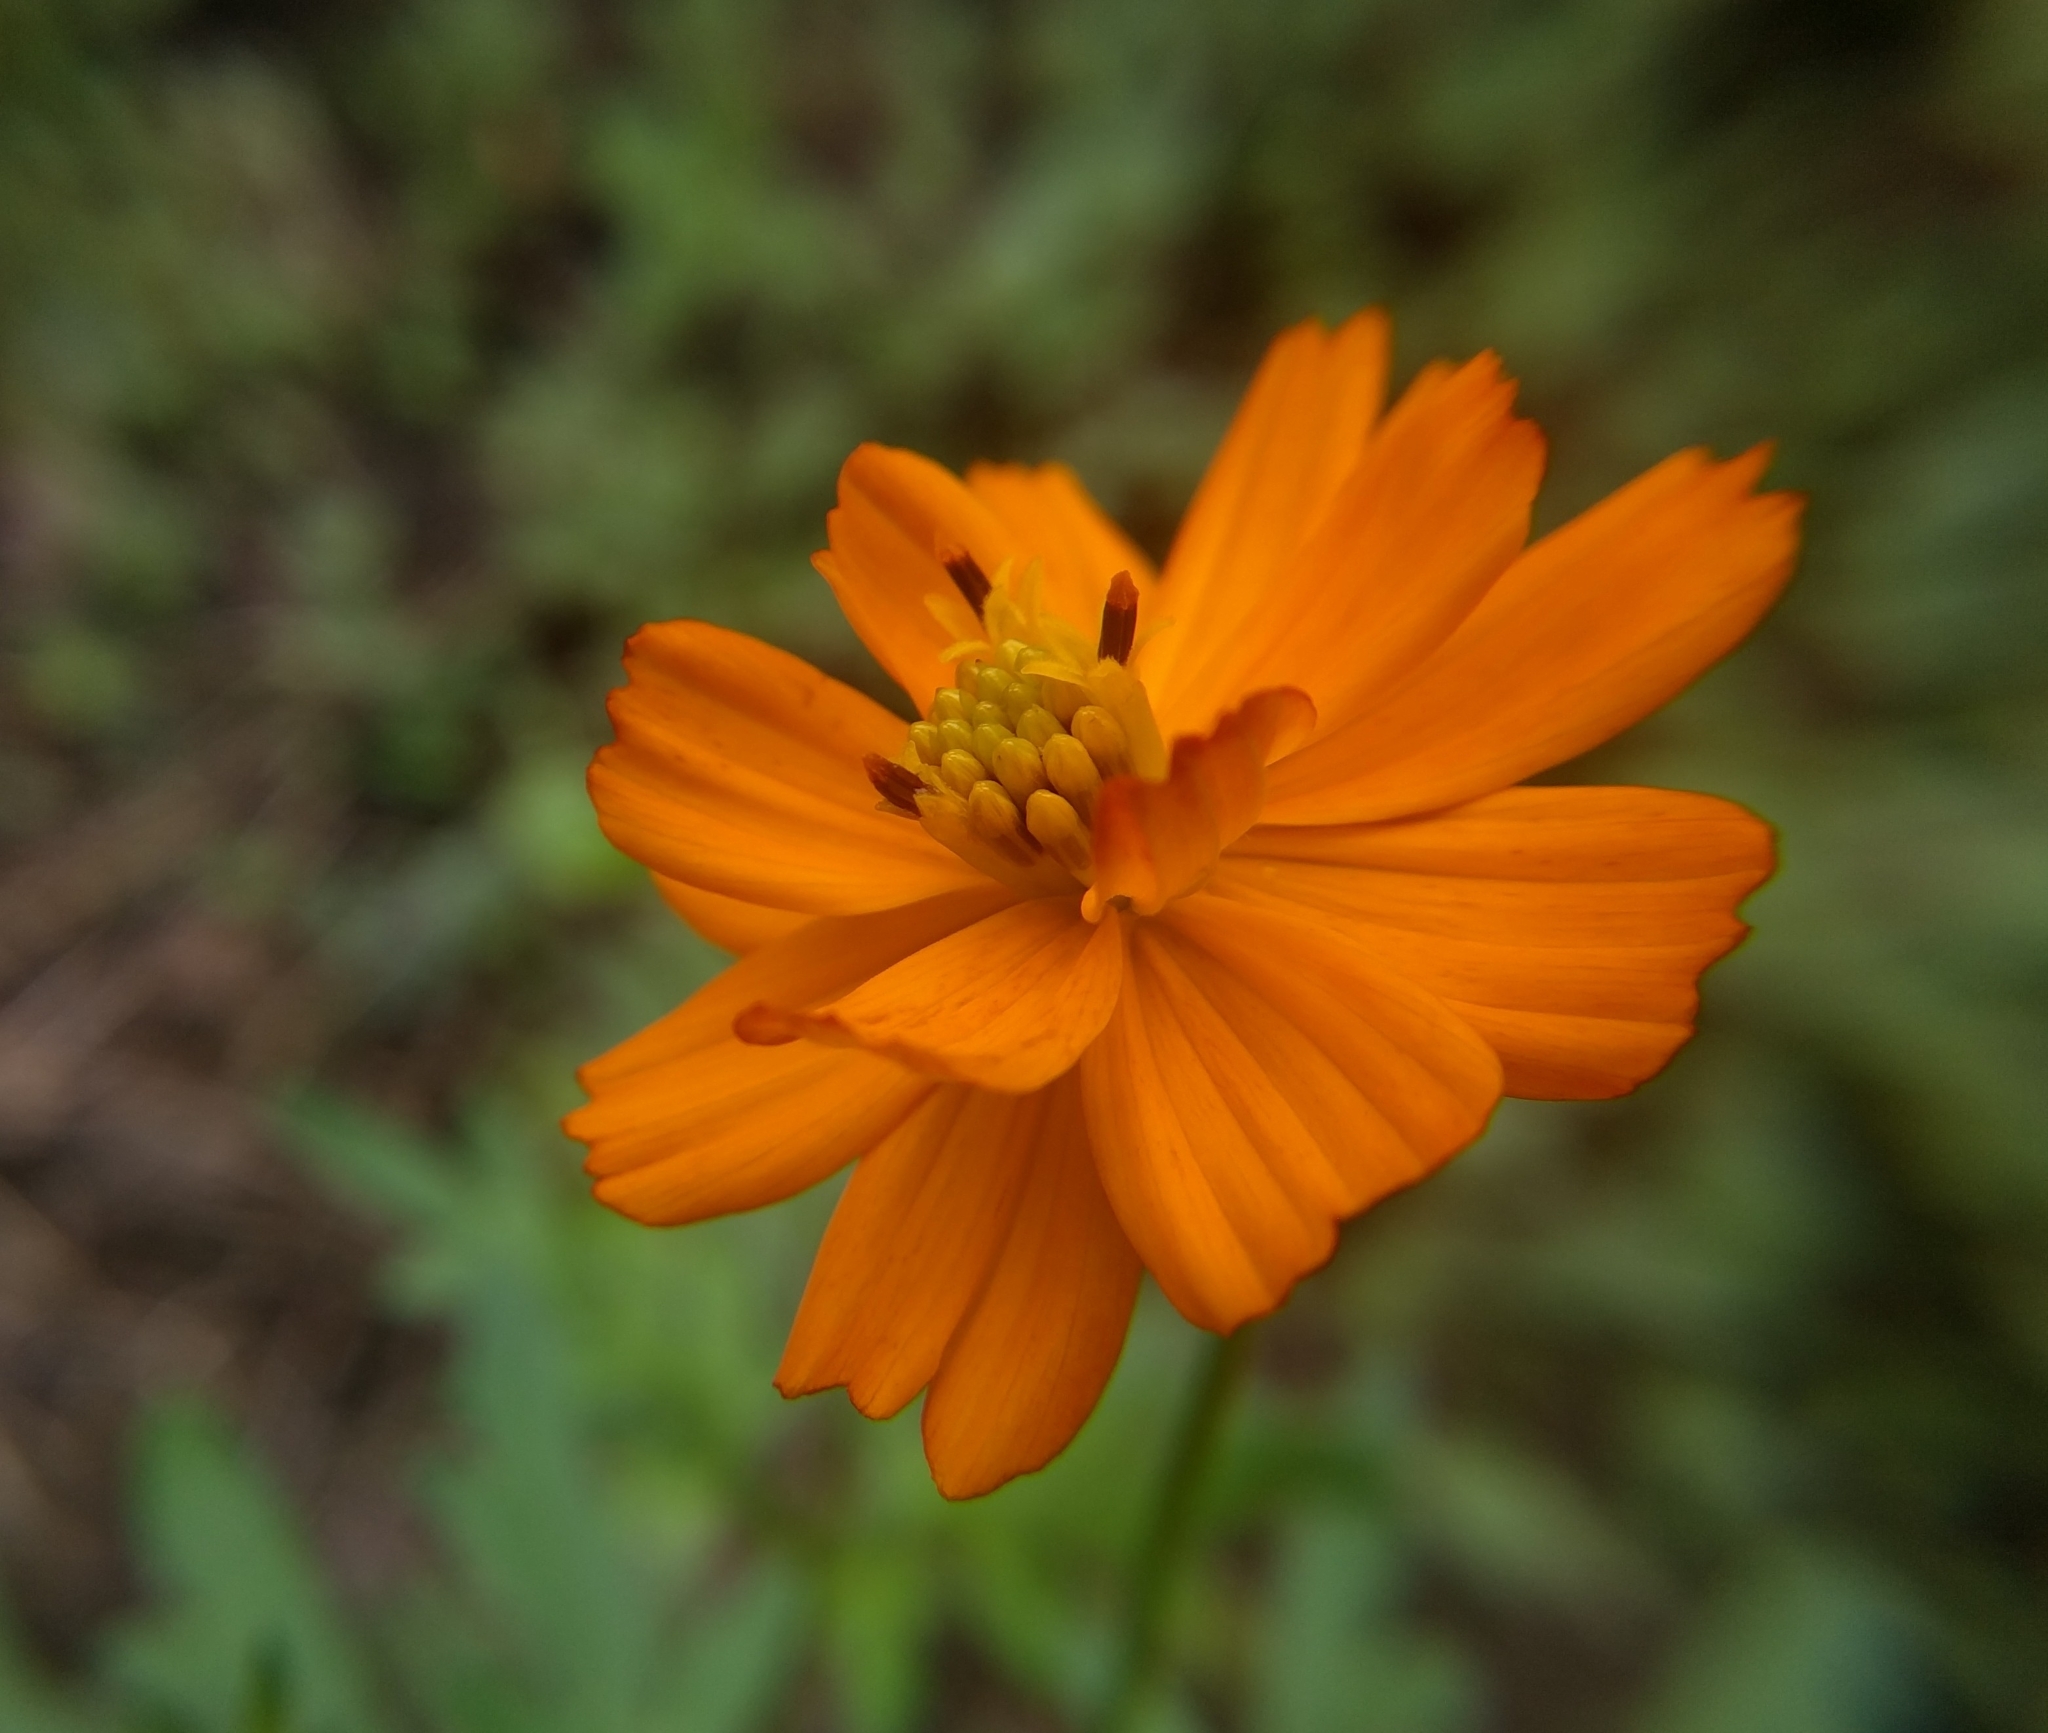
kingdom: Plantae
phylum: Tracheophyta
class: Magnoliopsida
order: Asterales
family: Asteraceae
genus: Cosmos
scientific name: Cosmos sulphureus
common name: Sulphur cosmos
